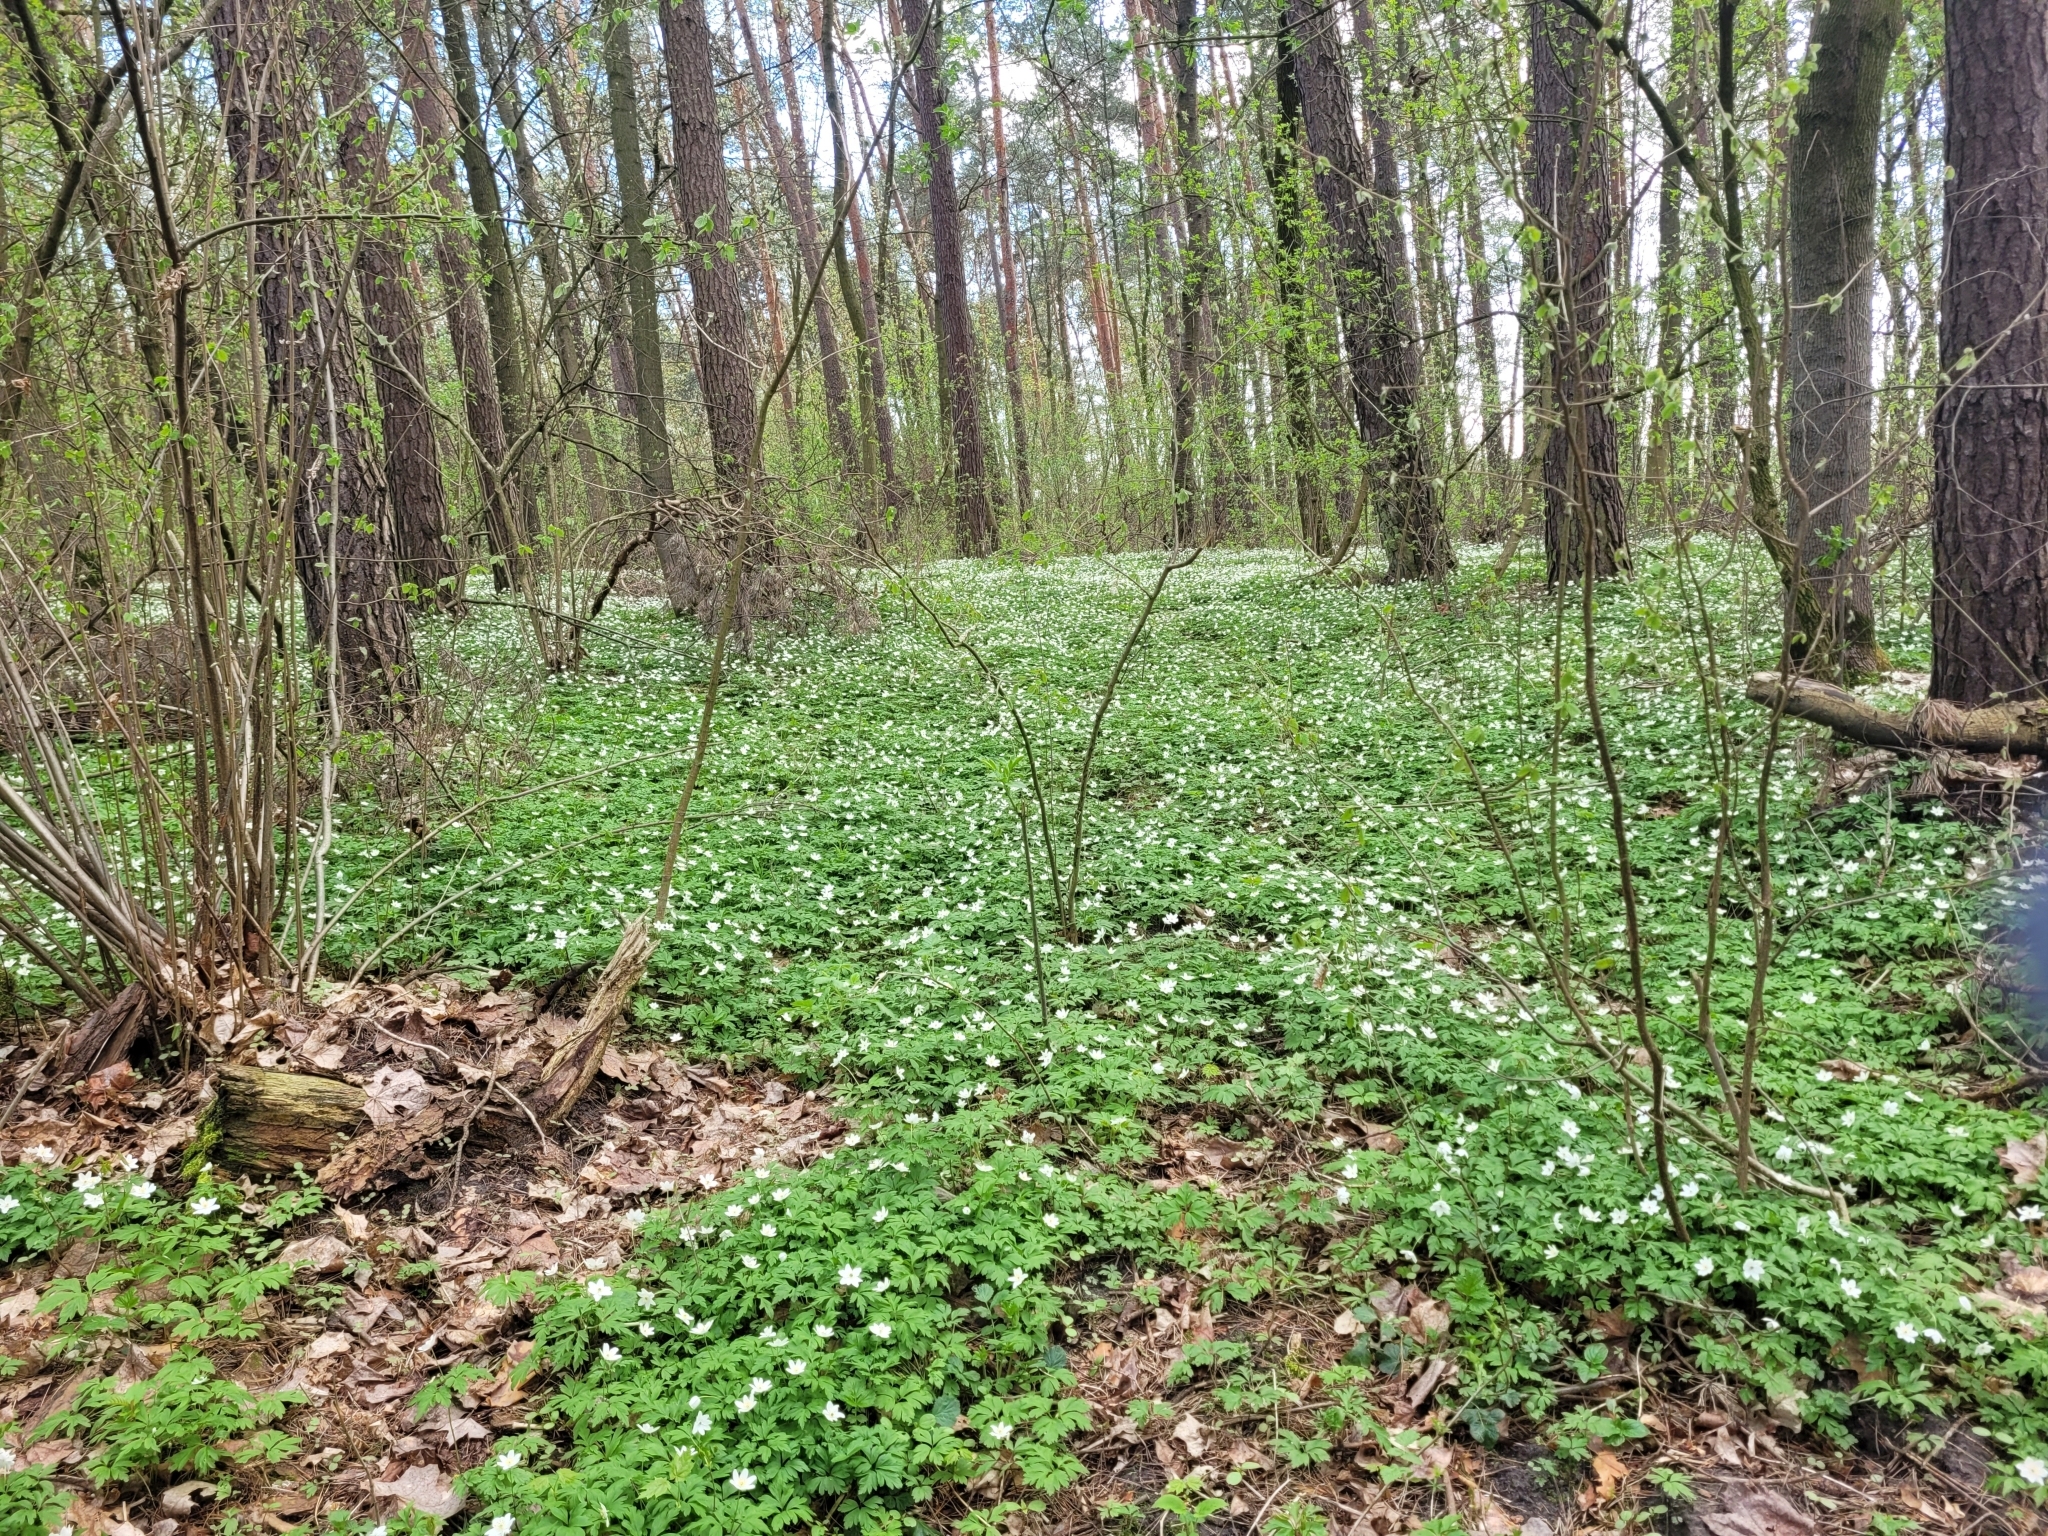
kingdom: Plantae
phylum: Tracheophyta
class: Magnoliopsida
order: Ranunculales
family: Ranunculaceae
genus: Anemone
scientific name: Anemone nemorosa
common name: Wood anemone
